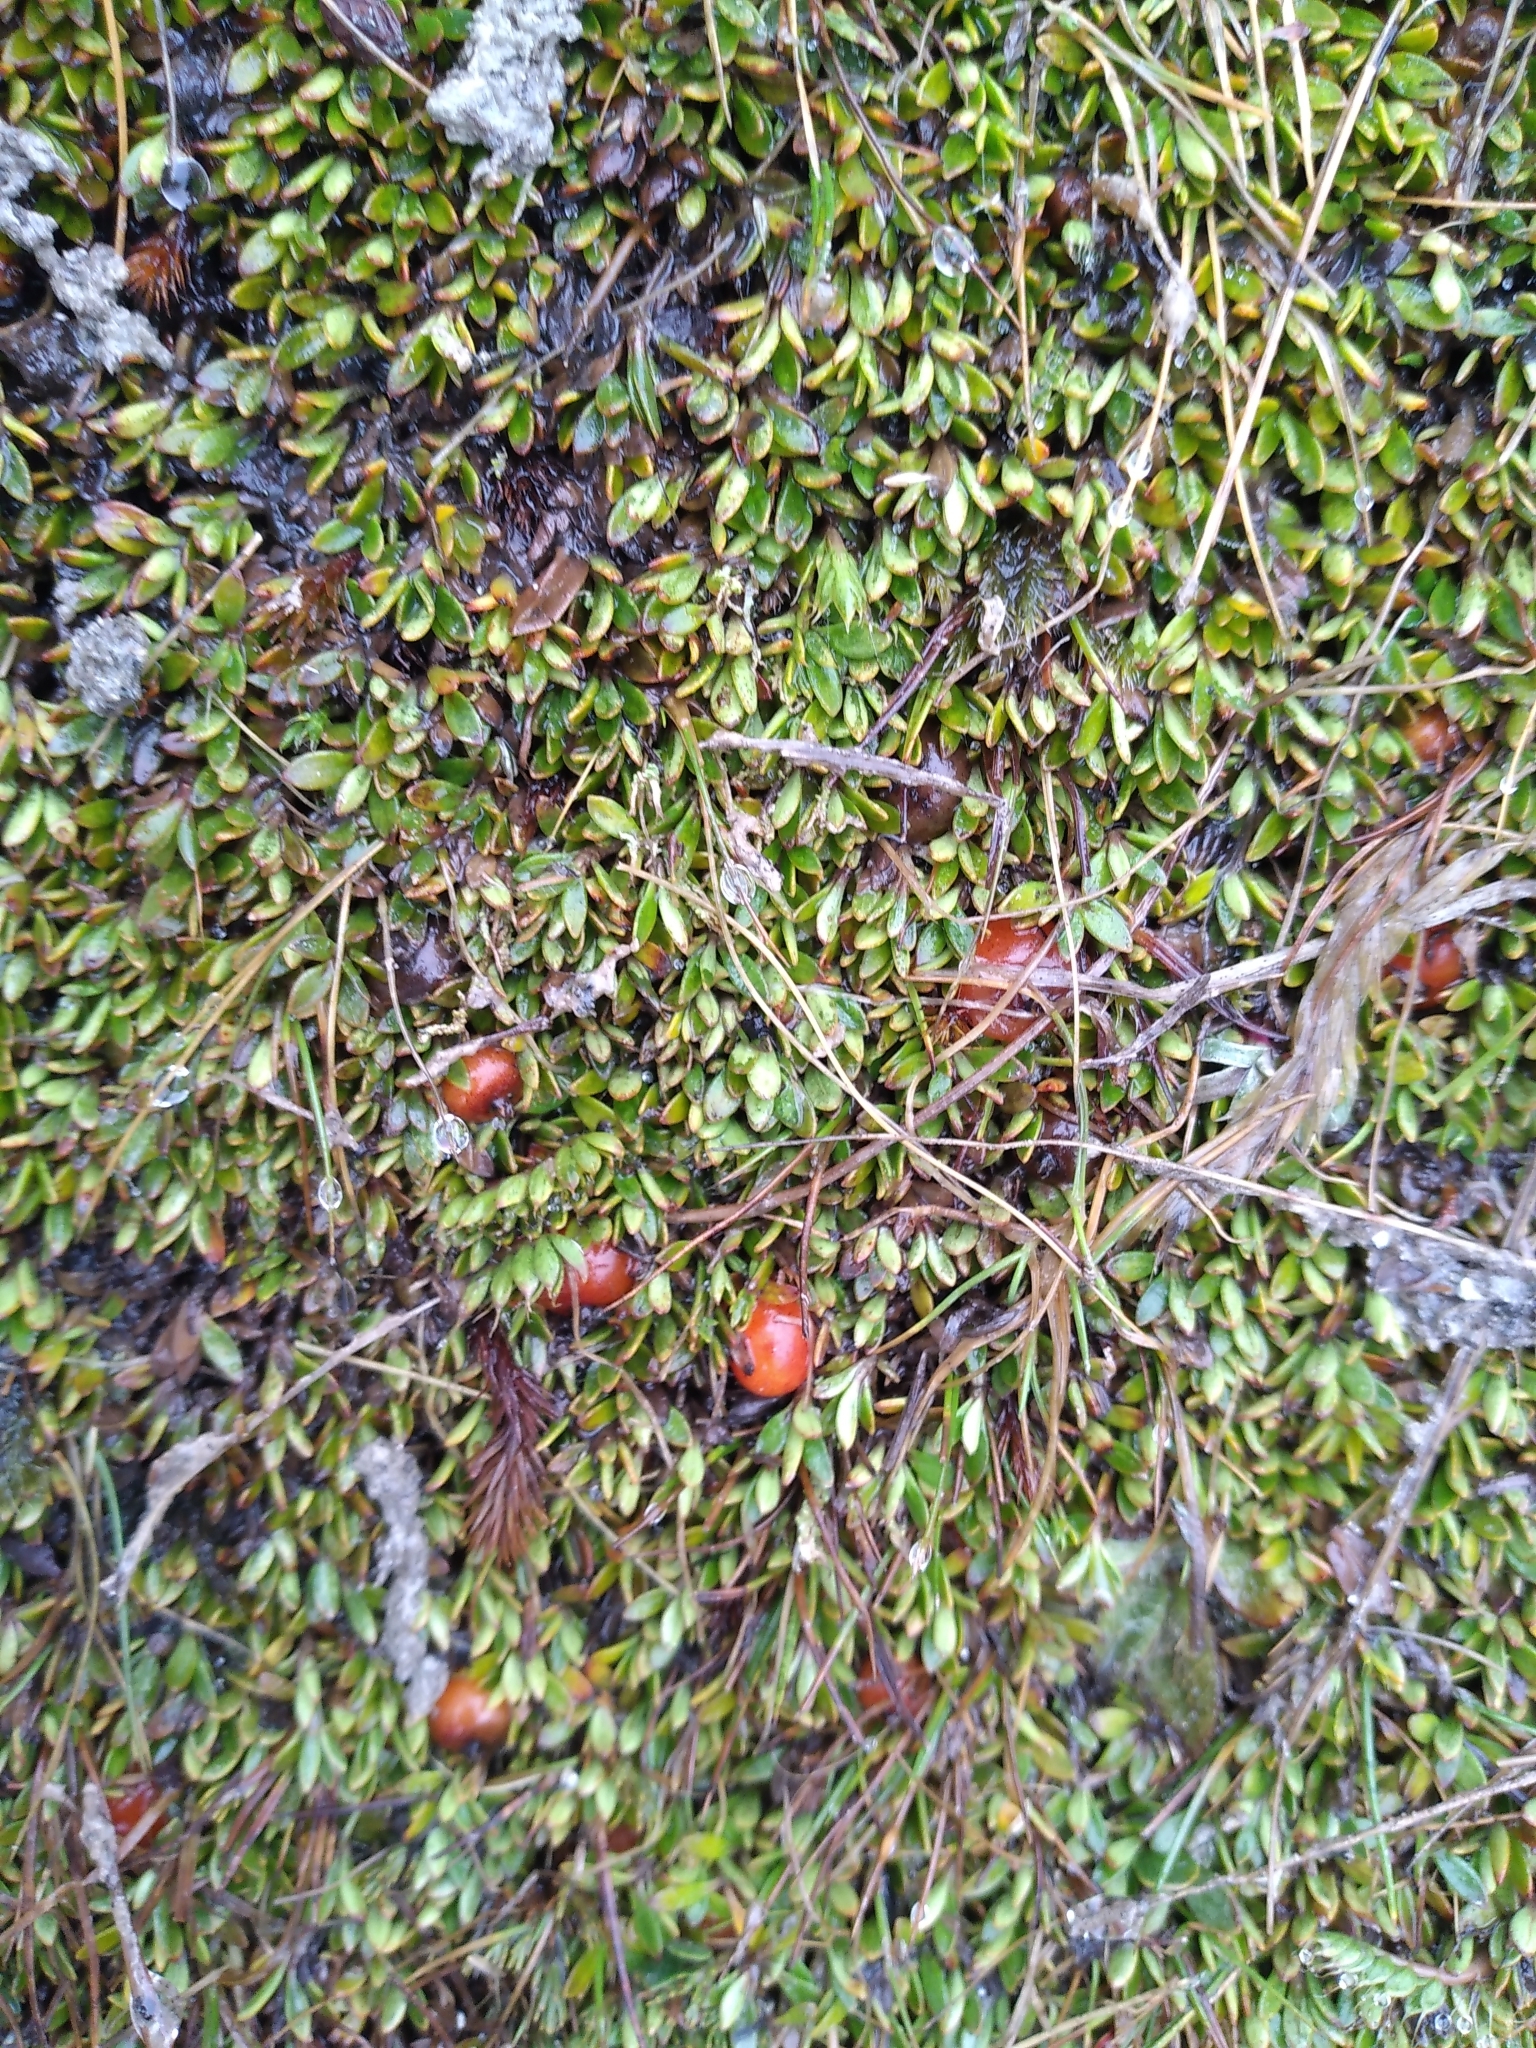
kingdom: Plantae
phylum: Tracheophyta
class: Magnoliopsida
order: Gentianales
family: Rubiaceae
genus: Coprosma
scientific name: Coprosma niphophila
